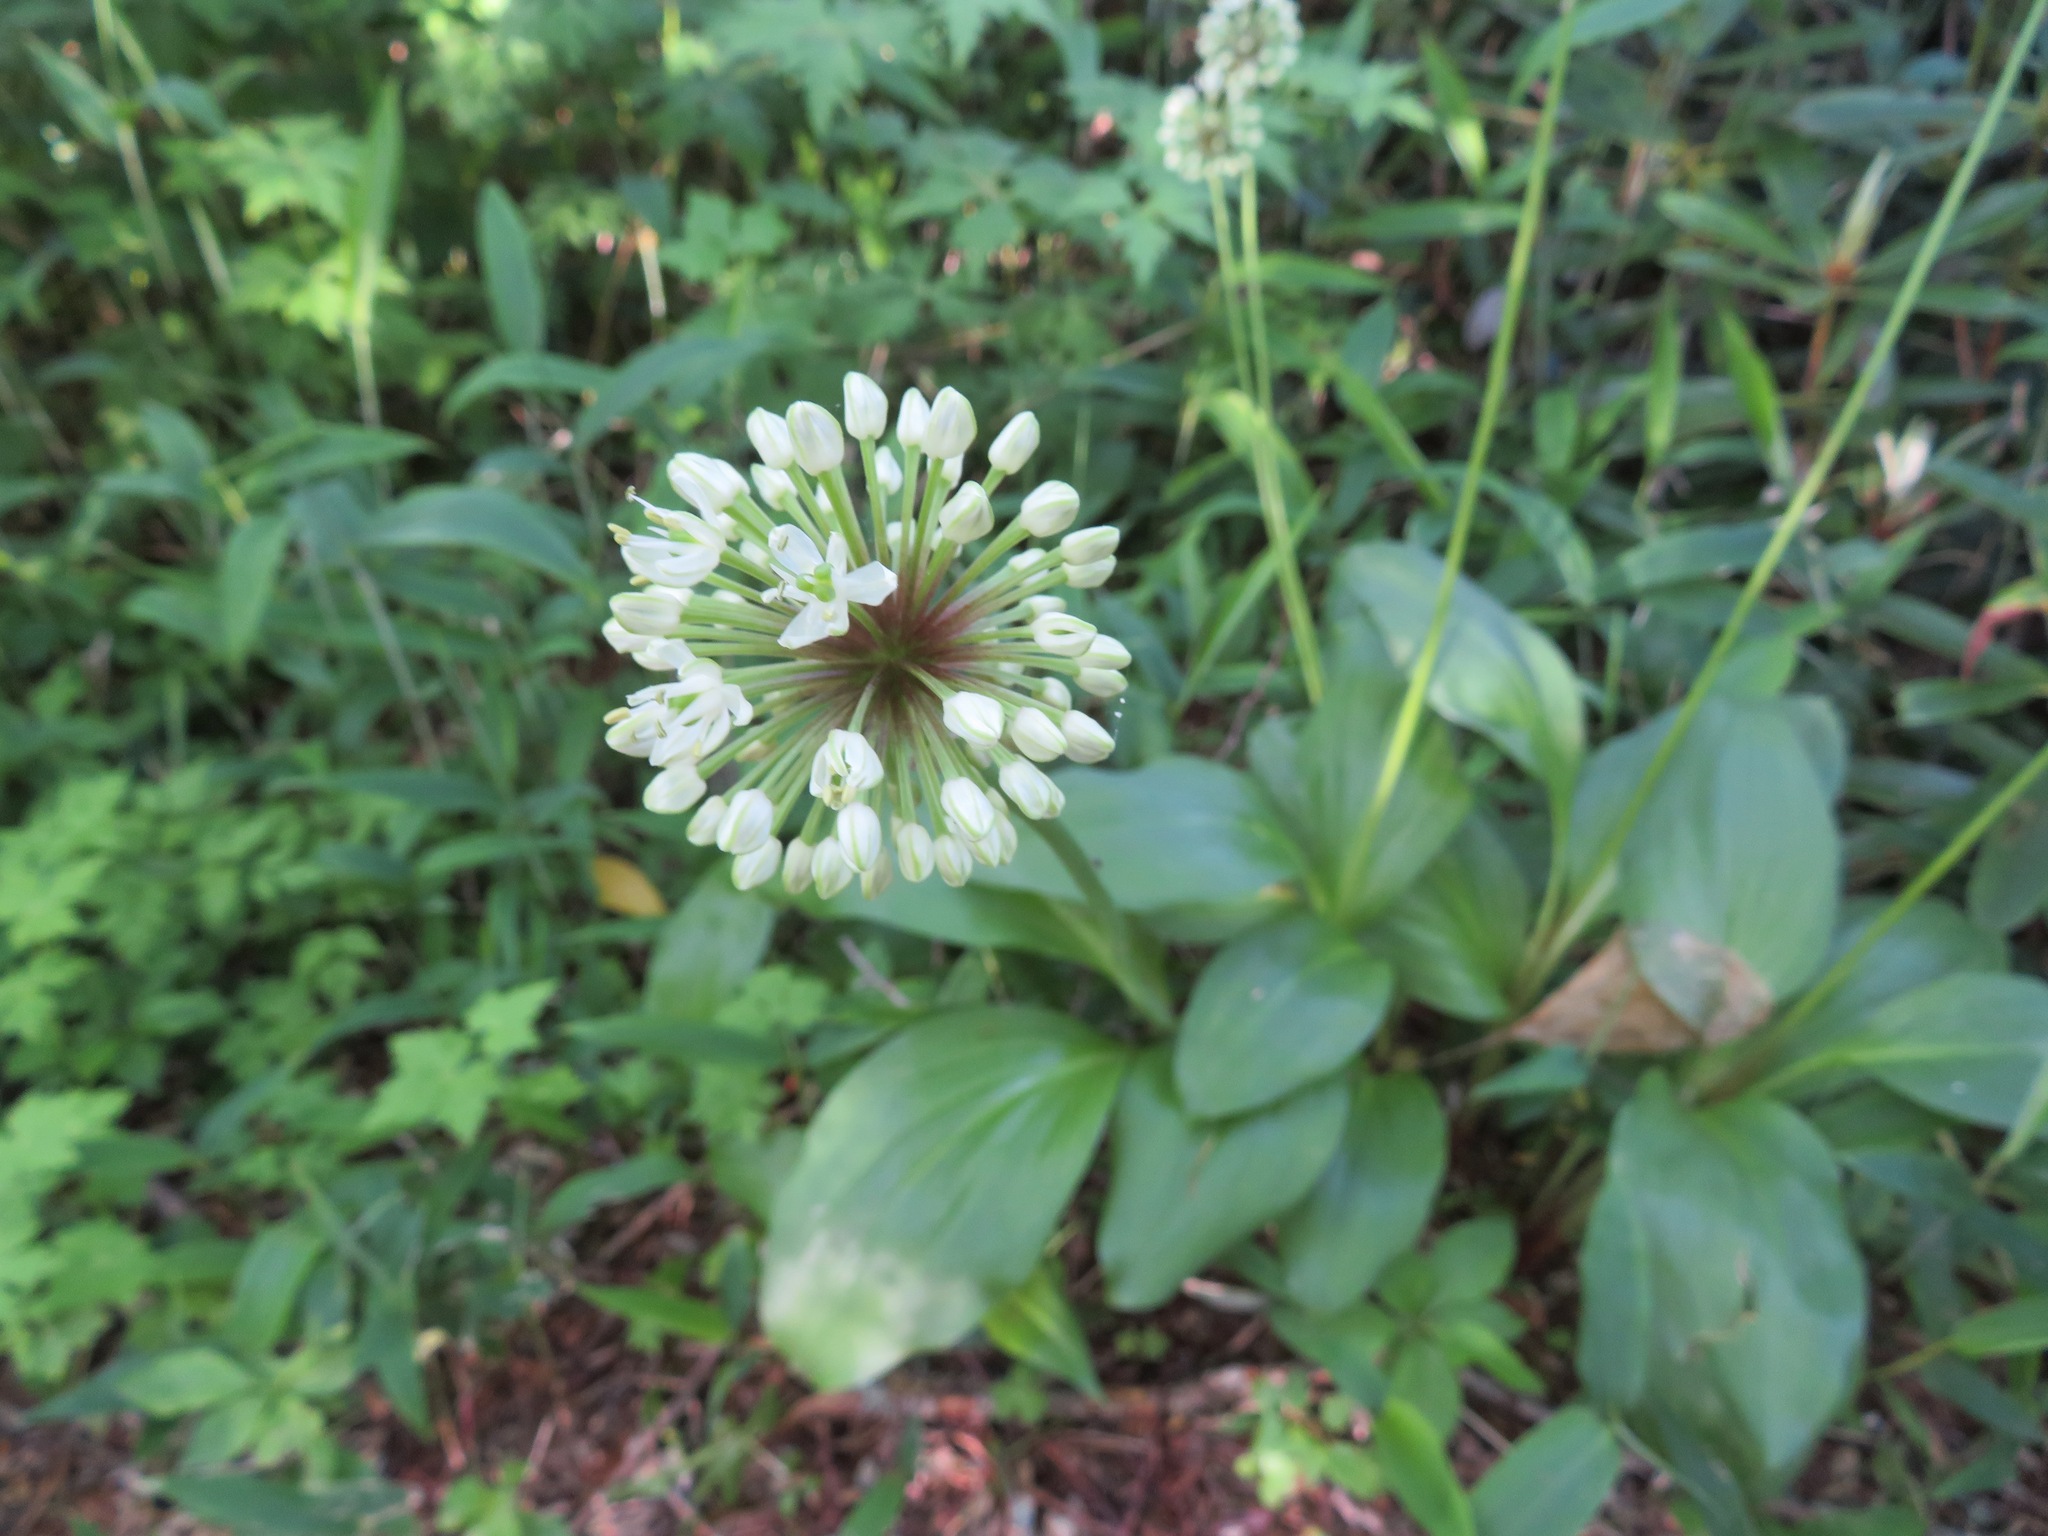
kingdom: Plantae
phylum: Tracheophyta
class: Liliopsida
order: Asparagales
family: Amaryllidaceae
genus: Allium
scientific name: Allium ochotense
